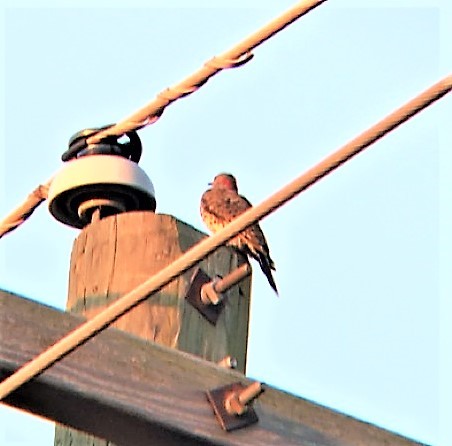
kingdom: Animalia
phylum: Chordata
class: Aves
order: Piciformes
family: Picidae
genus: Colaptes
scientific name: Colaptes auratus
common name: Northern flicker
